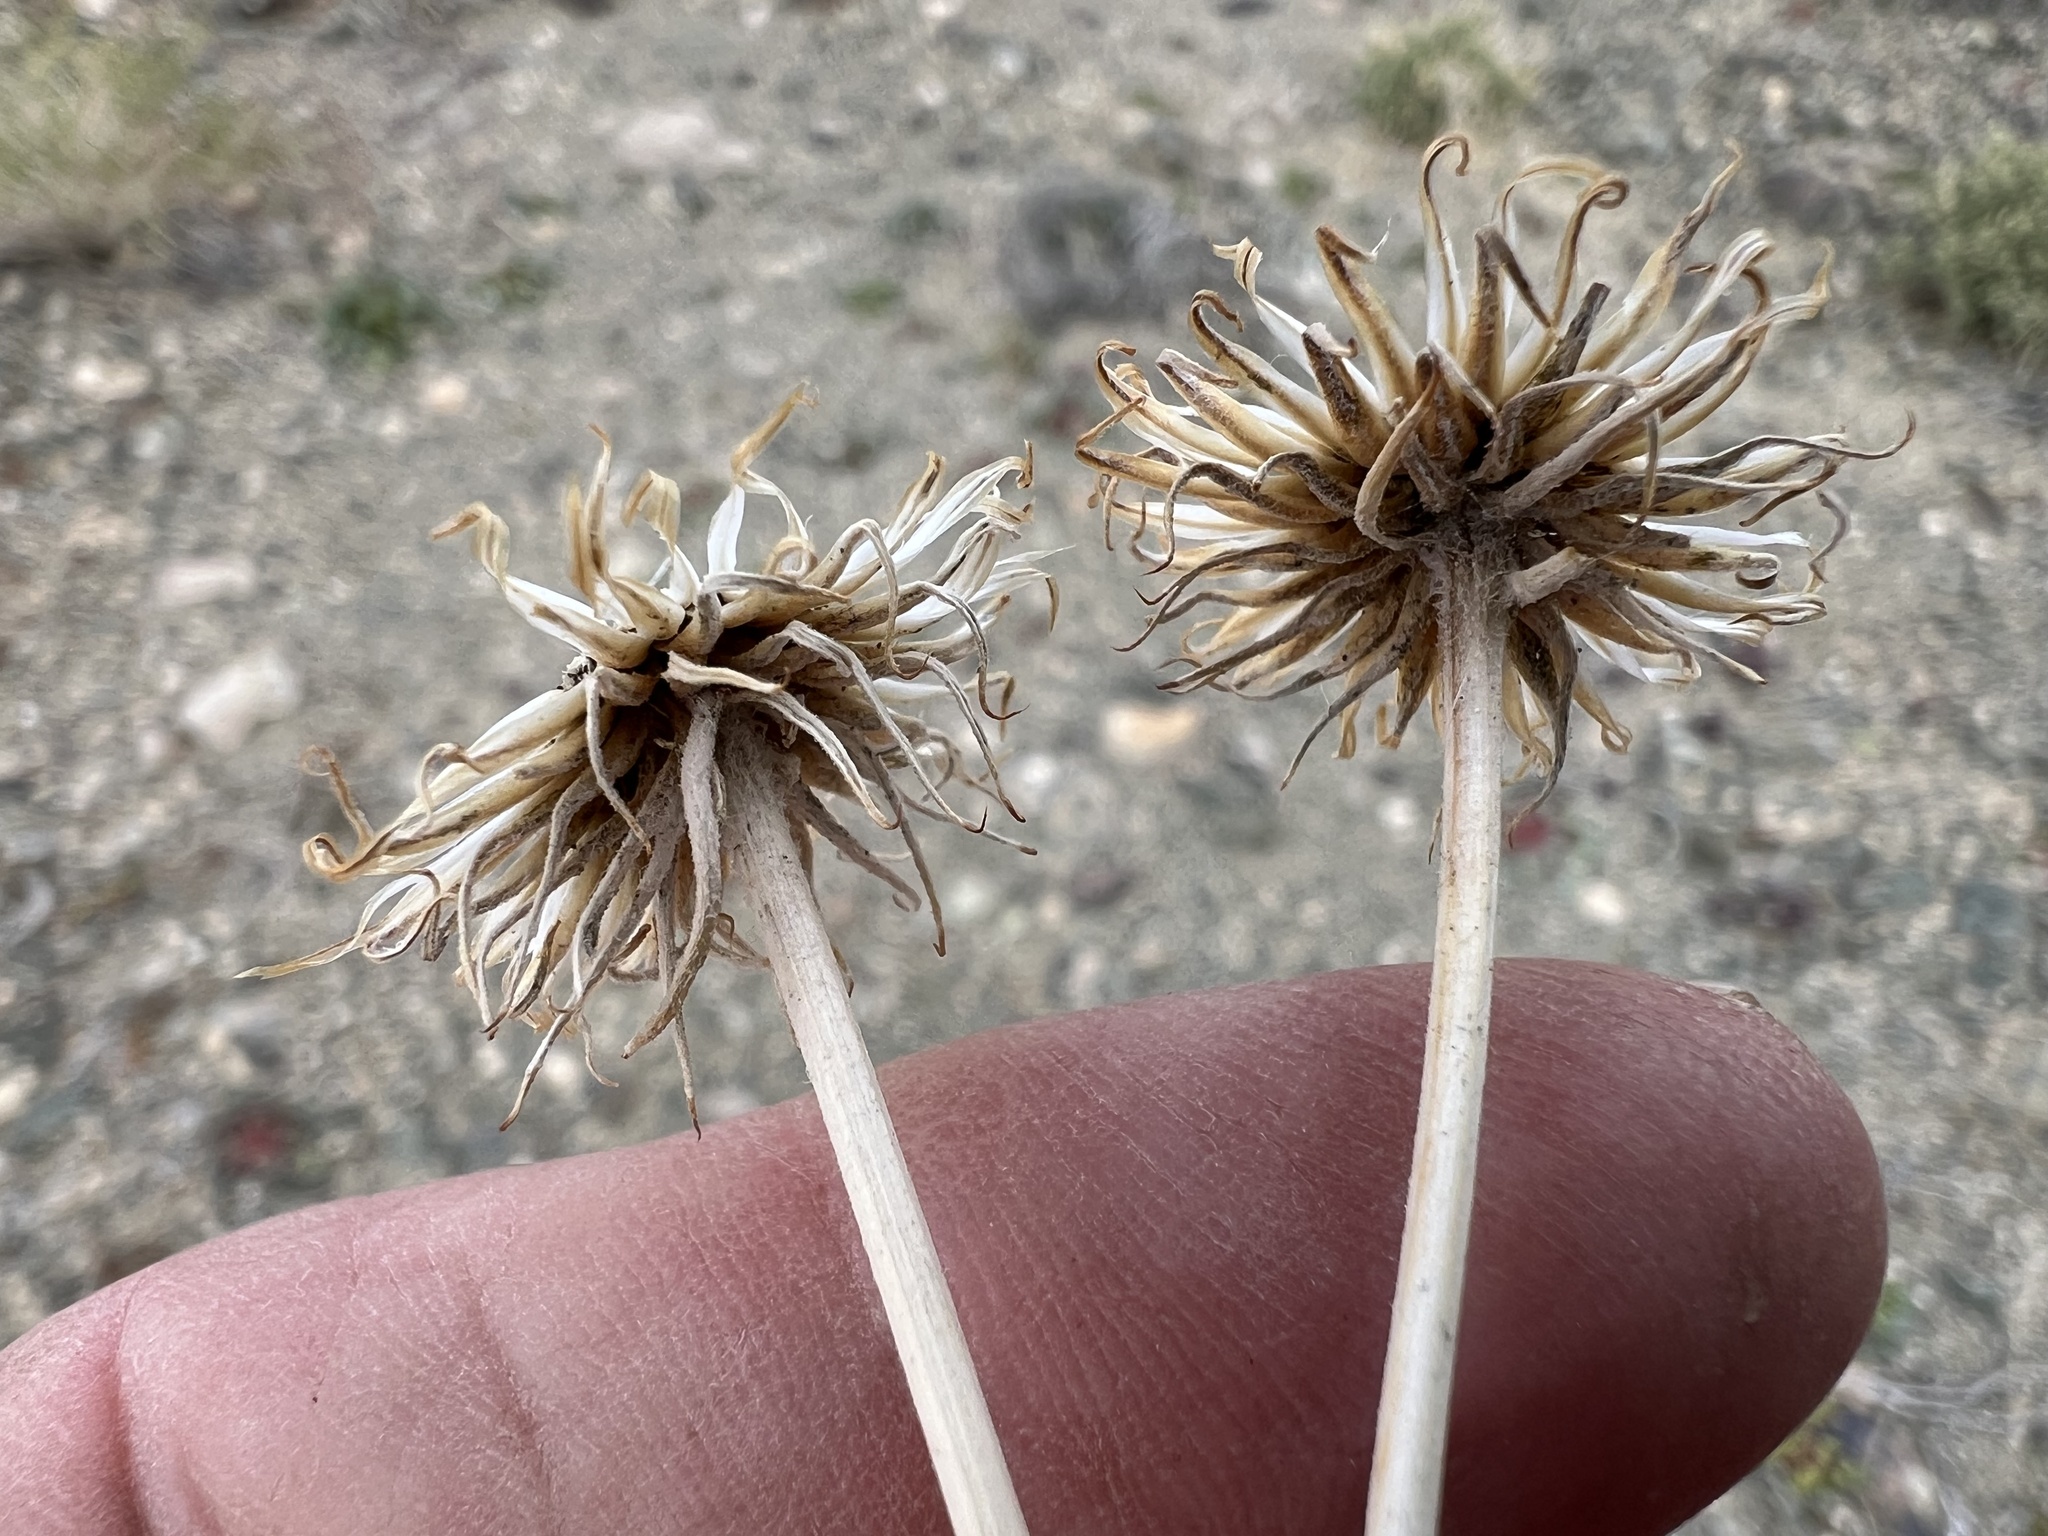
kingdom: Plantae
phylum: Tracheophyta
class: Magnoliopsida
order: Asterales
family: Asteraceae
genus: Xylorhiza
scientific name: Xylorhiza tortifolia
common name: Hurt-leaf woody-aster
